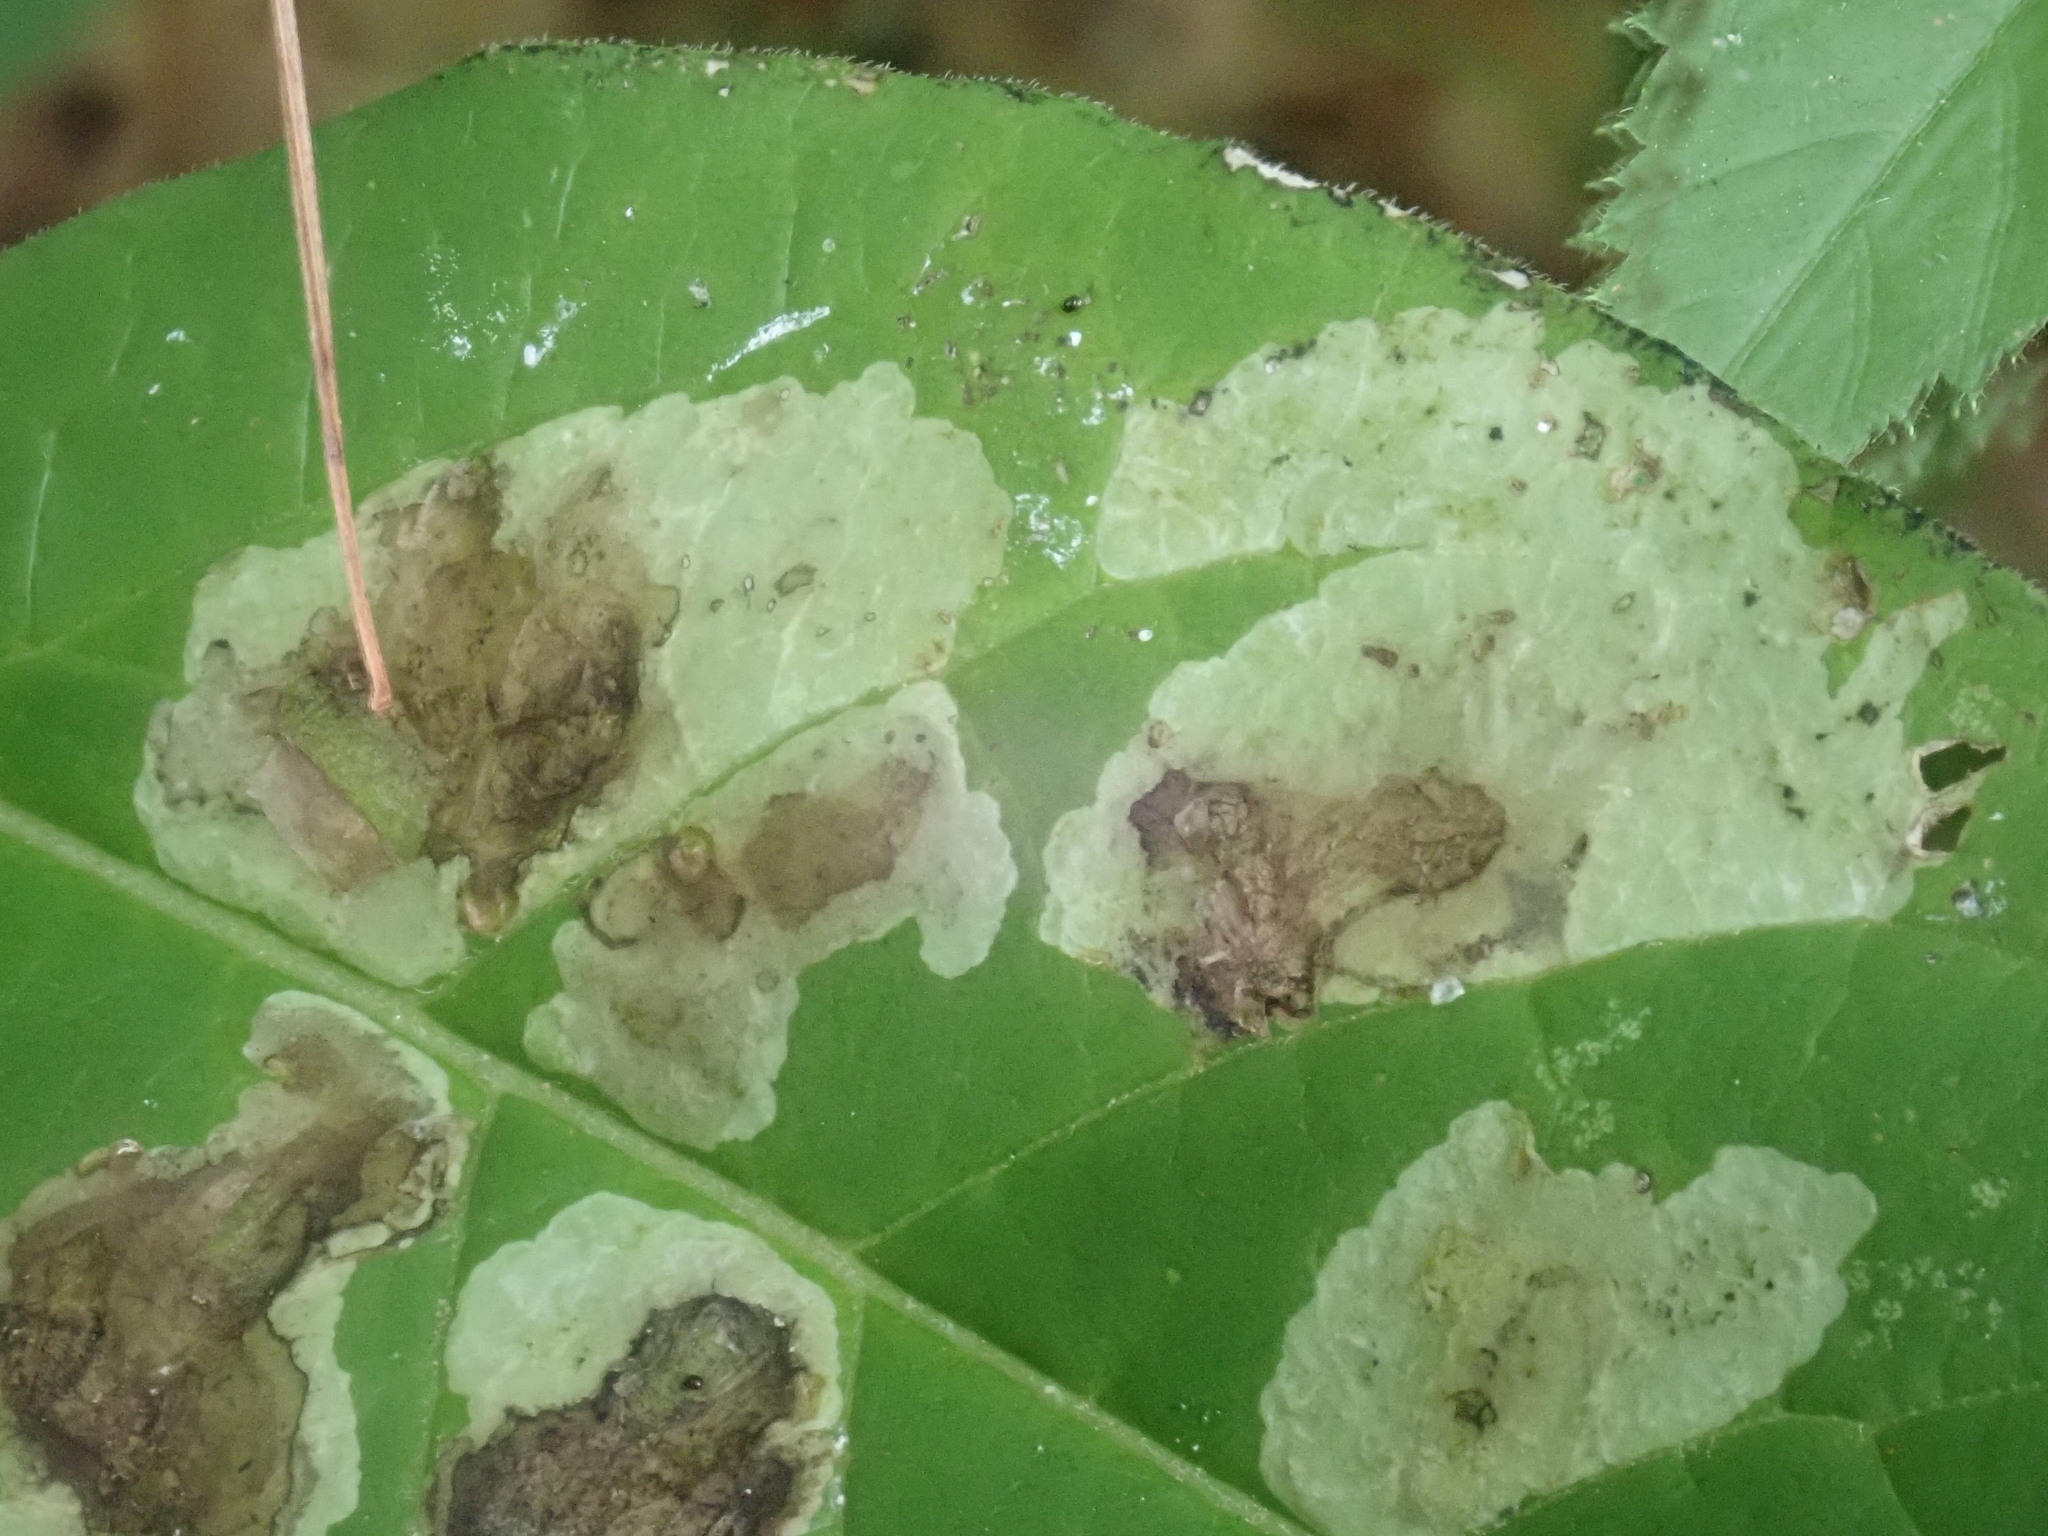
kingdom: Animalia
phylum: Arthropoda
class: Insecta
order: Diptera
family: Agromyzidae
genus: Liriomyza
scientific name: Liriomyza asclepiadis
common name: Milkweed leaf-miner fly
